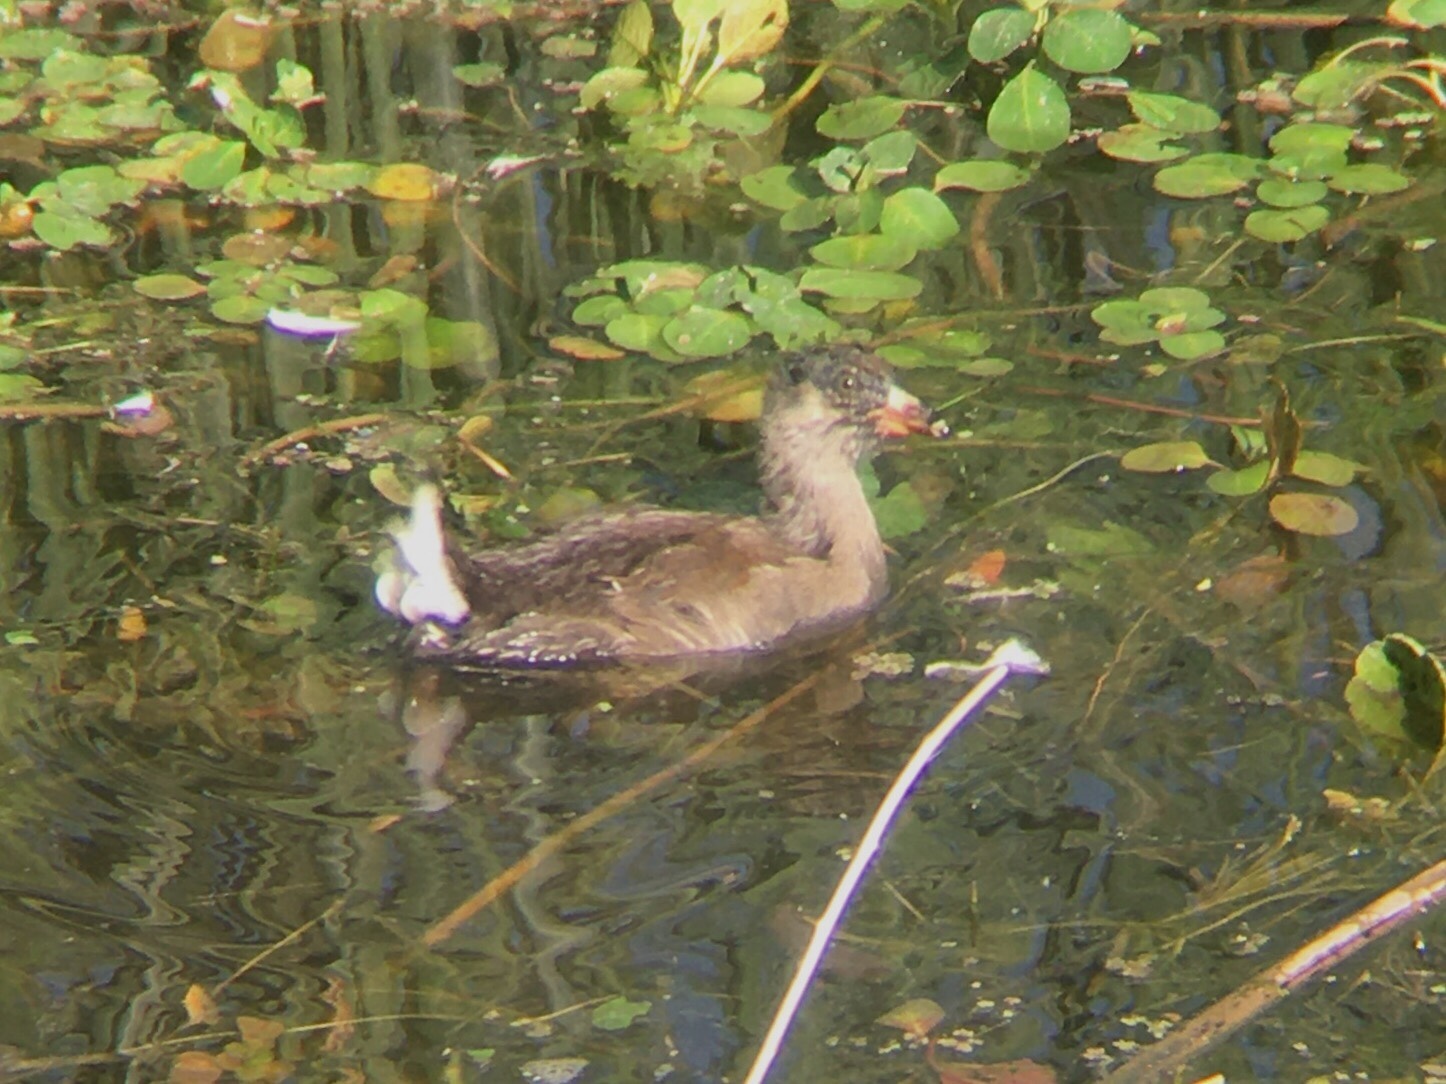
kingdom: Animalia
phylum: Chordata
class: Aves
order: Gruiformes
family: Rallidae
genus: Gallinula
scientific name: Gallinula melanops
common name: Spot-flanked gallinule
